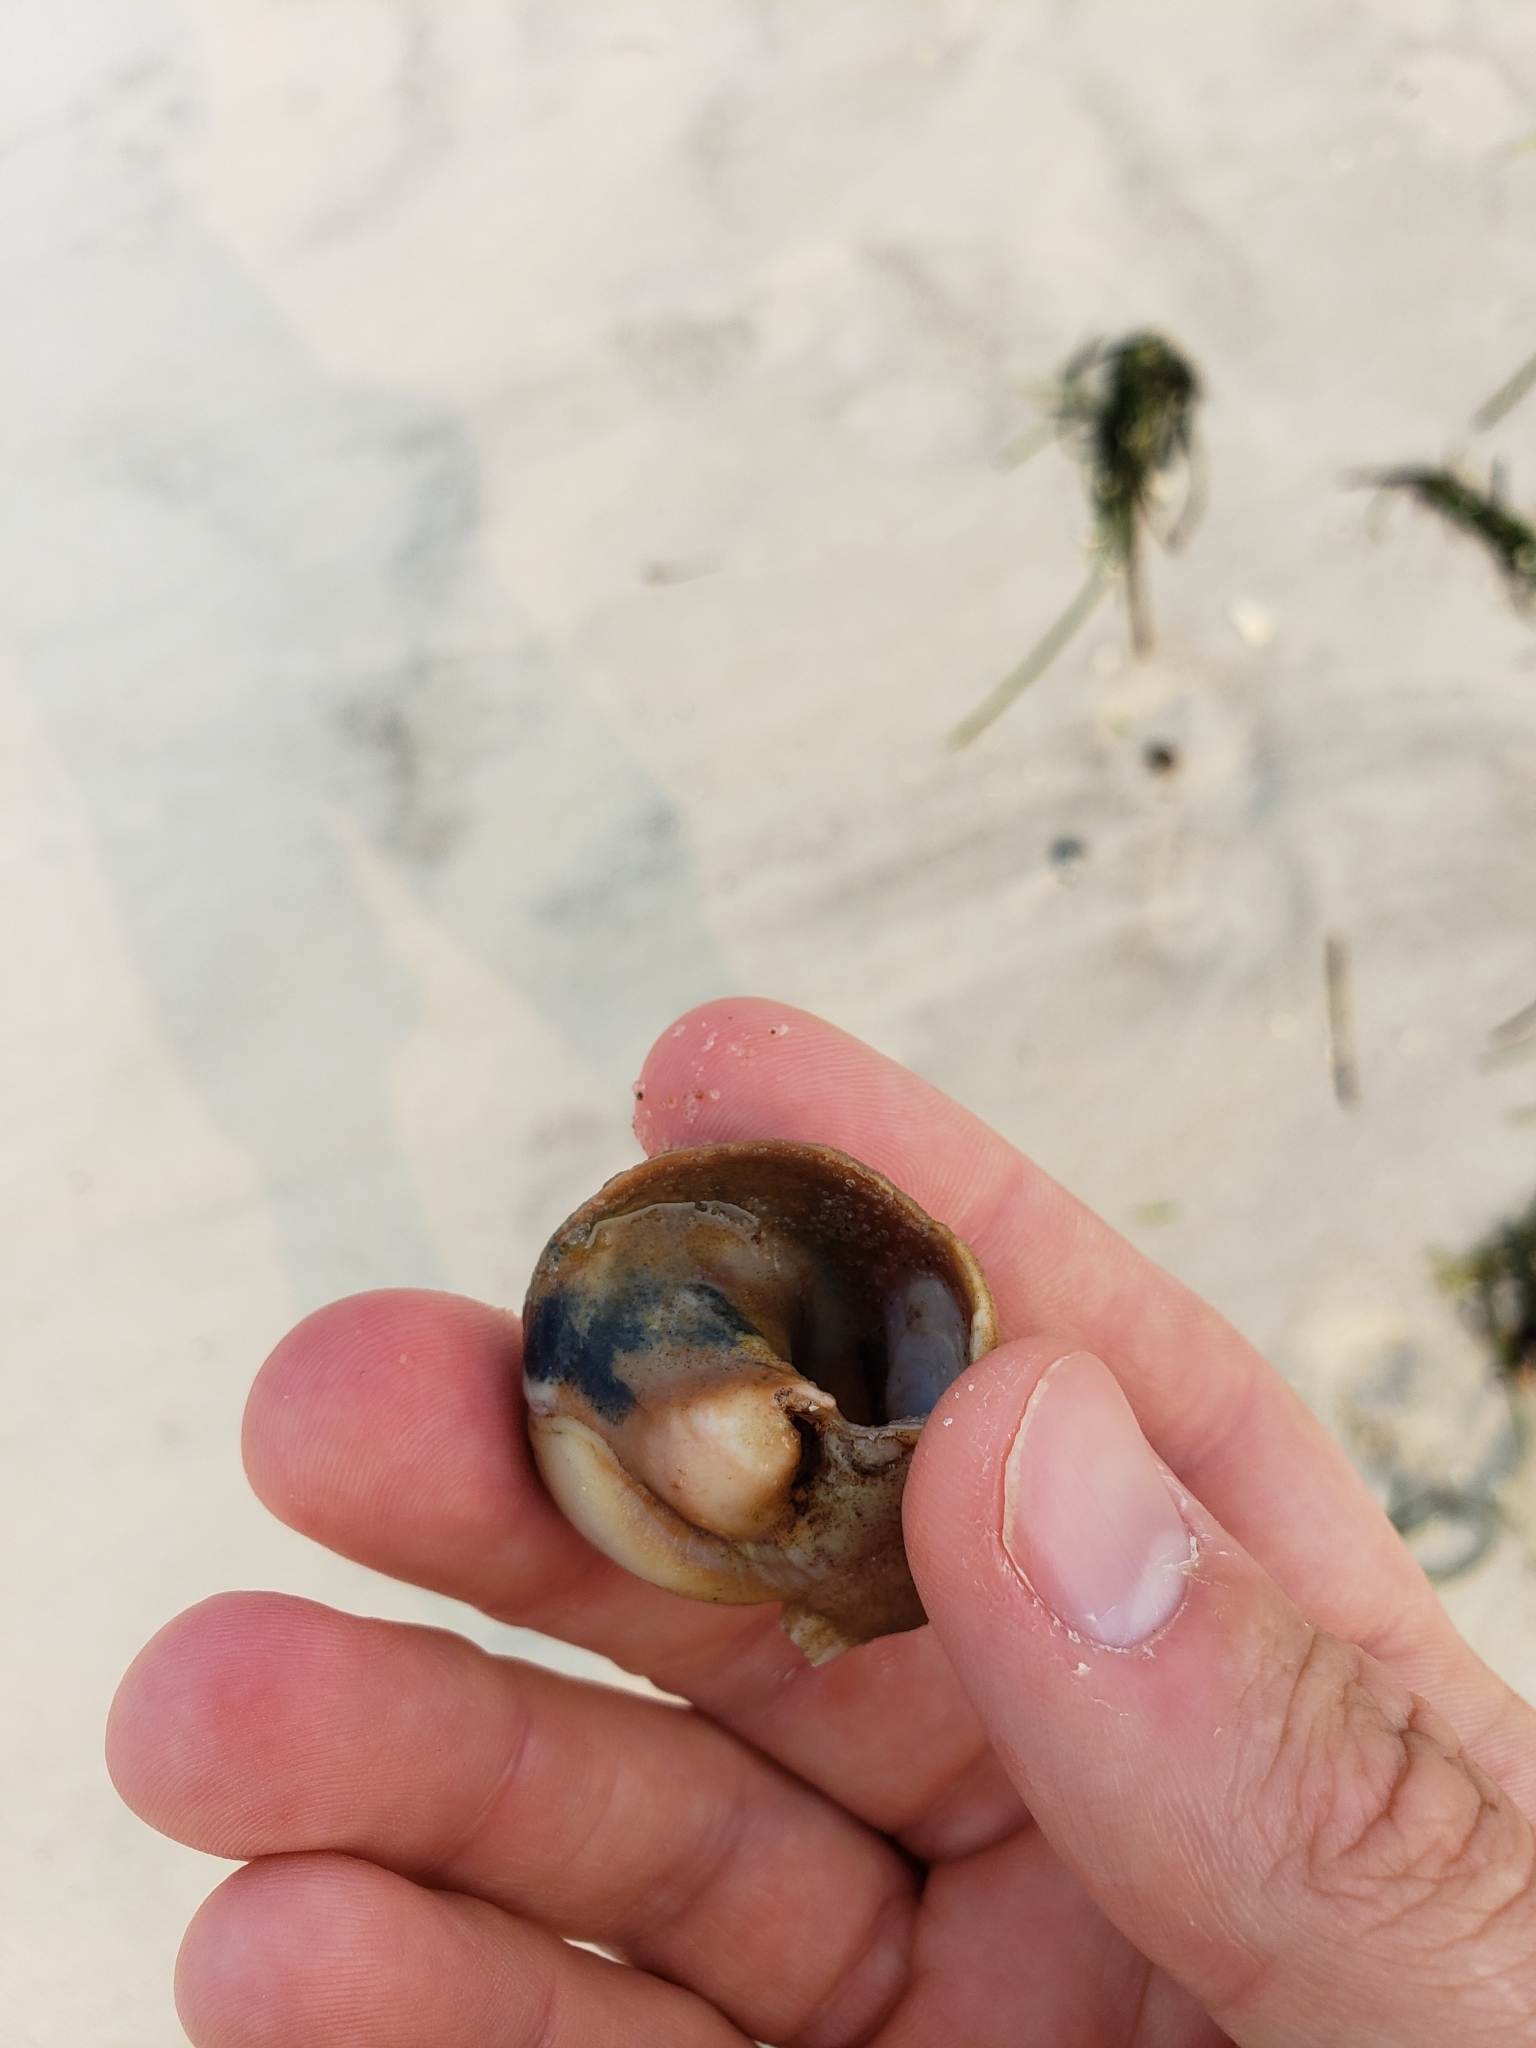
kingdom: Animalia
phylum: Mollusca
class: Gastropoda
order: Littorinimorpha
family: Naticidae
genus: Neverita
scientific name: Neverita duplicata
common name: Lobed moonsnail
